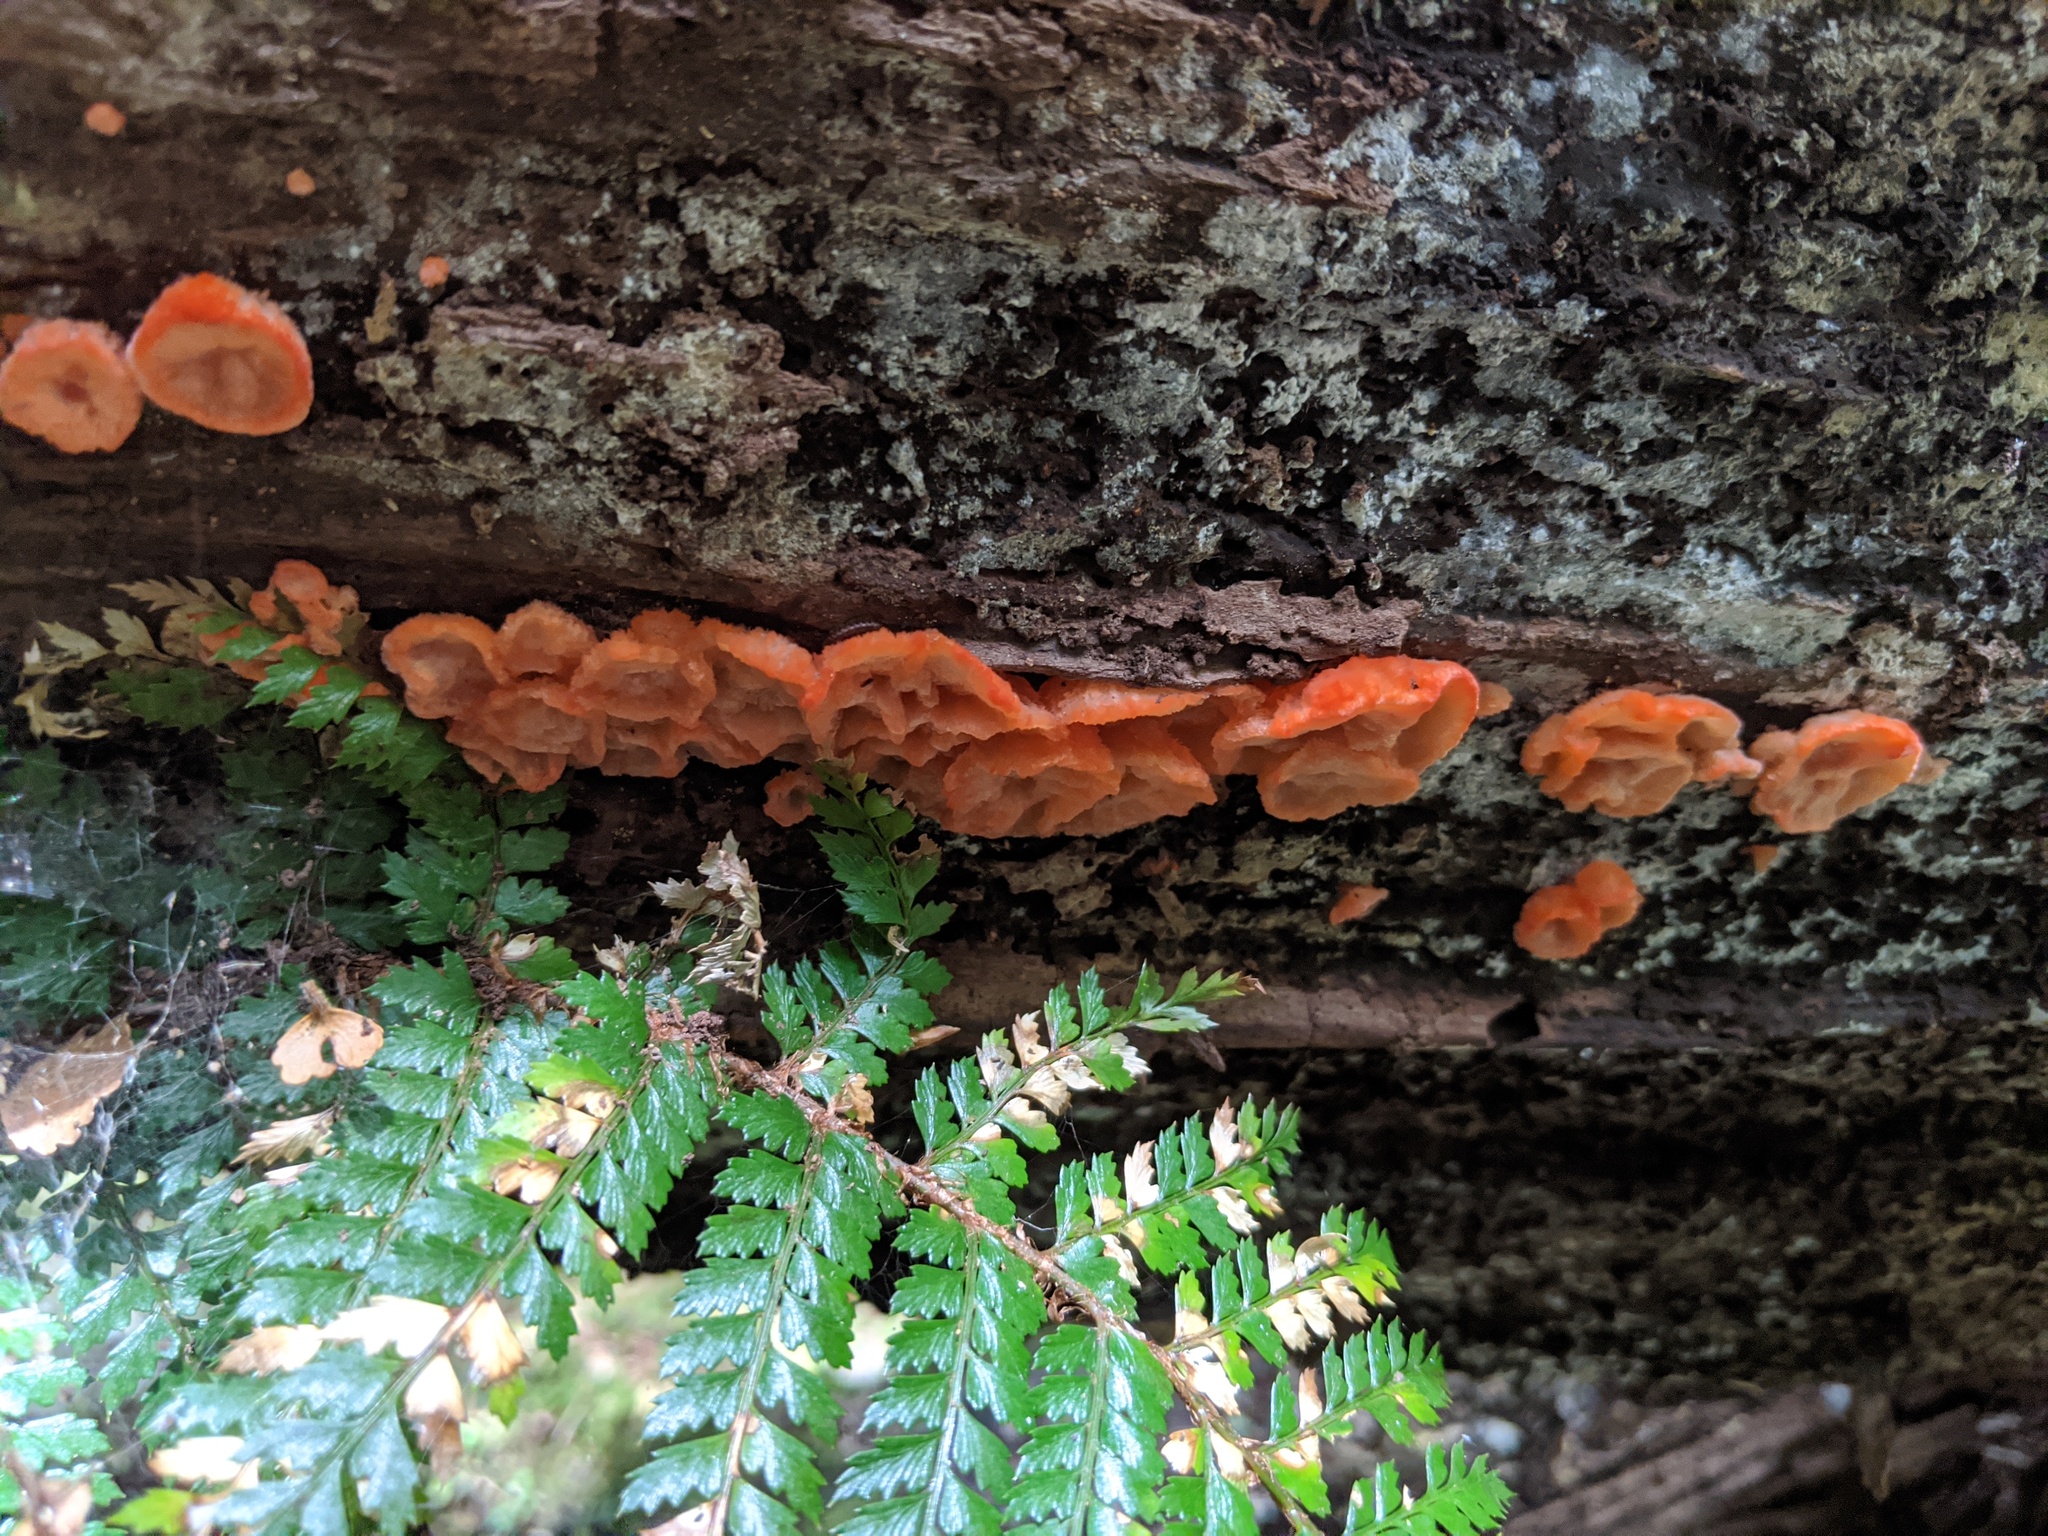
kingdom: Fungi
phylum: Basidiomycota
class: Agaricomycetes
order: Polyporales
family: Incrustoporiaceae
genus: Tyromyces
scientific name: Tyromyces pulcherrimus
